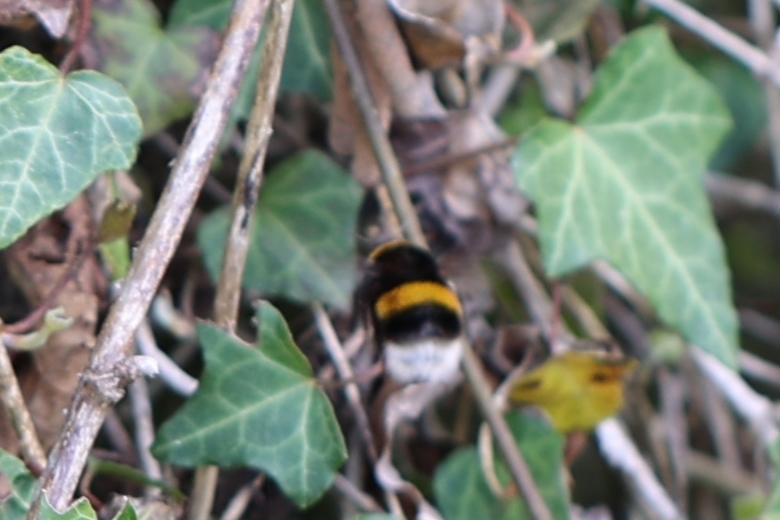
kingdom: Animalia
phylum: Arthropoda
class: Insecta
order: Hymenoptera
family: Apidae
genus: Bombus
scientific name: Bombus terrestris
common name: Buff-tailed bumblebee
